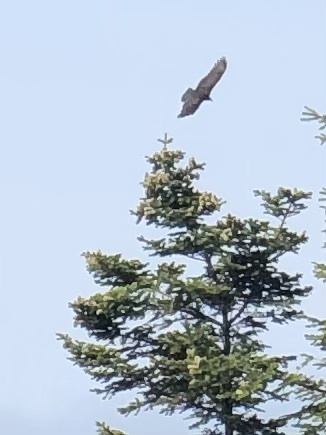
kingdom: Animalia
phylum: Chordata
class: Aves
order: Accipitriformes
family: Cathartidae
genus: Cathartes
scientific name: Cathartes aura
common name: Turkey vulture
